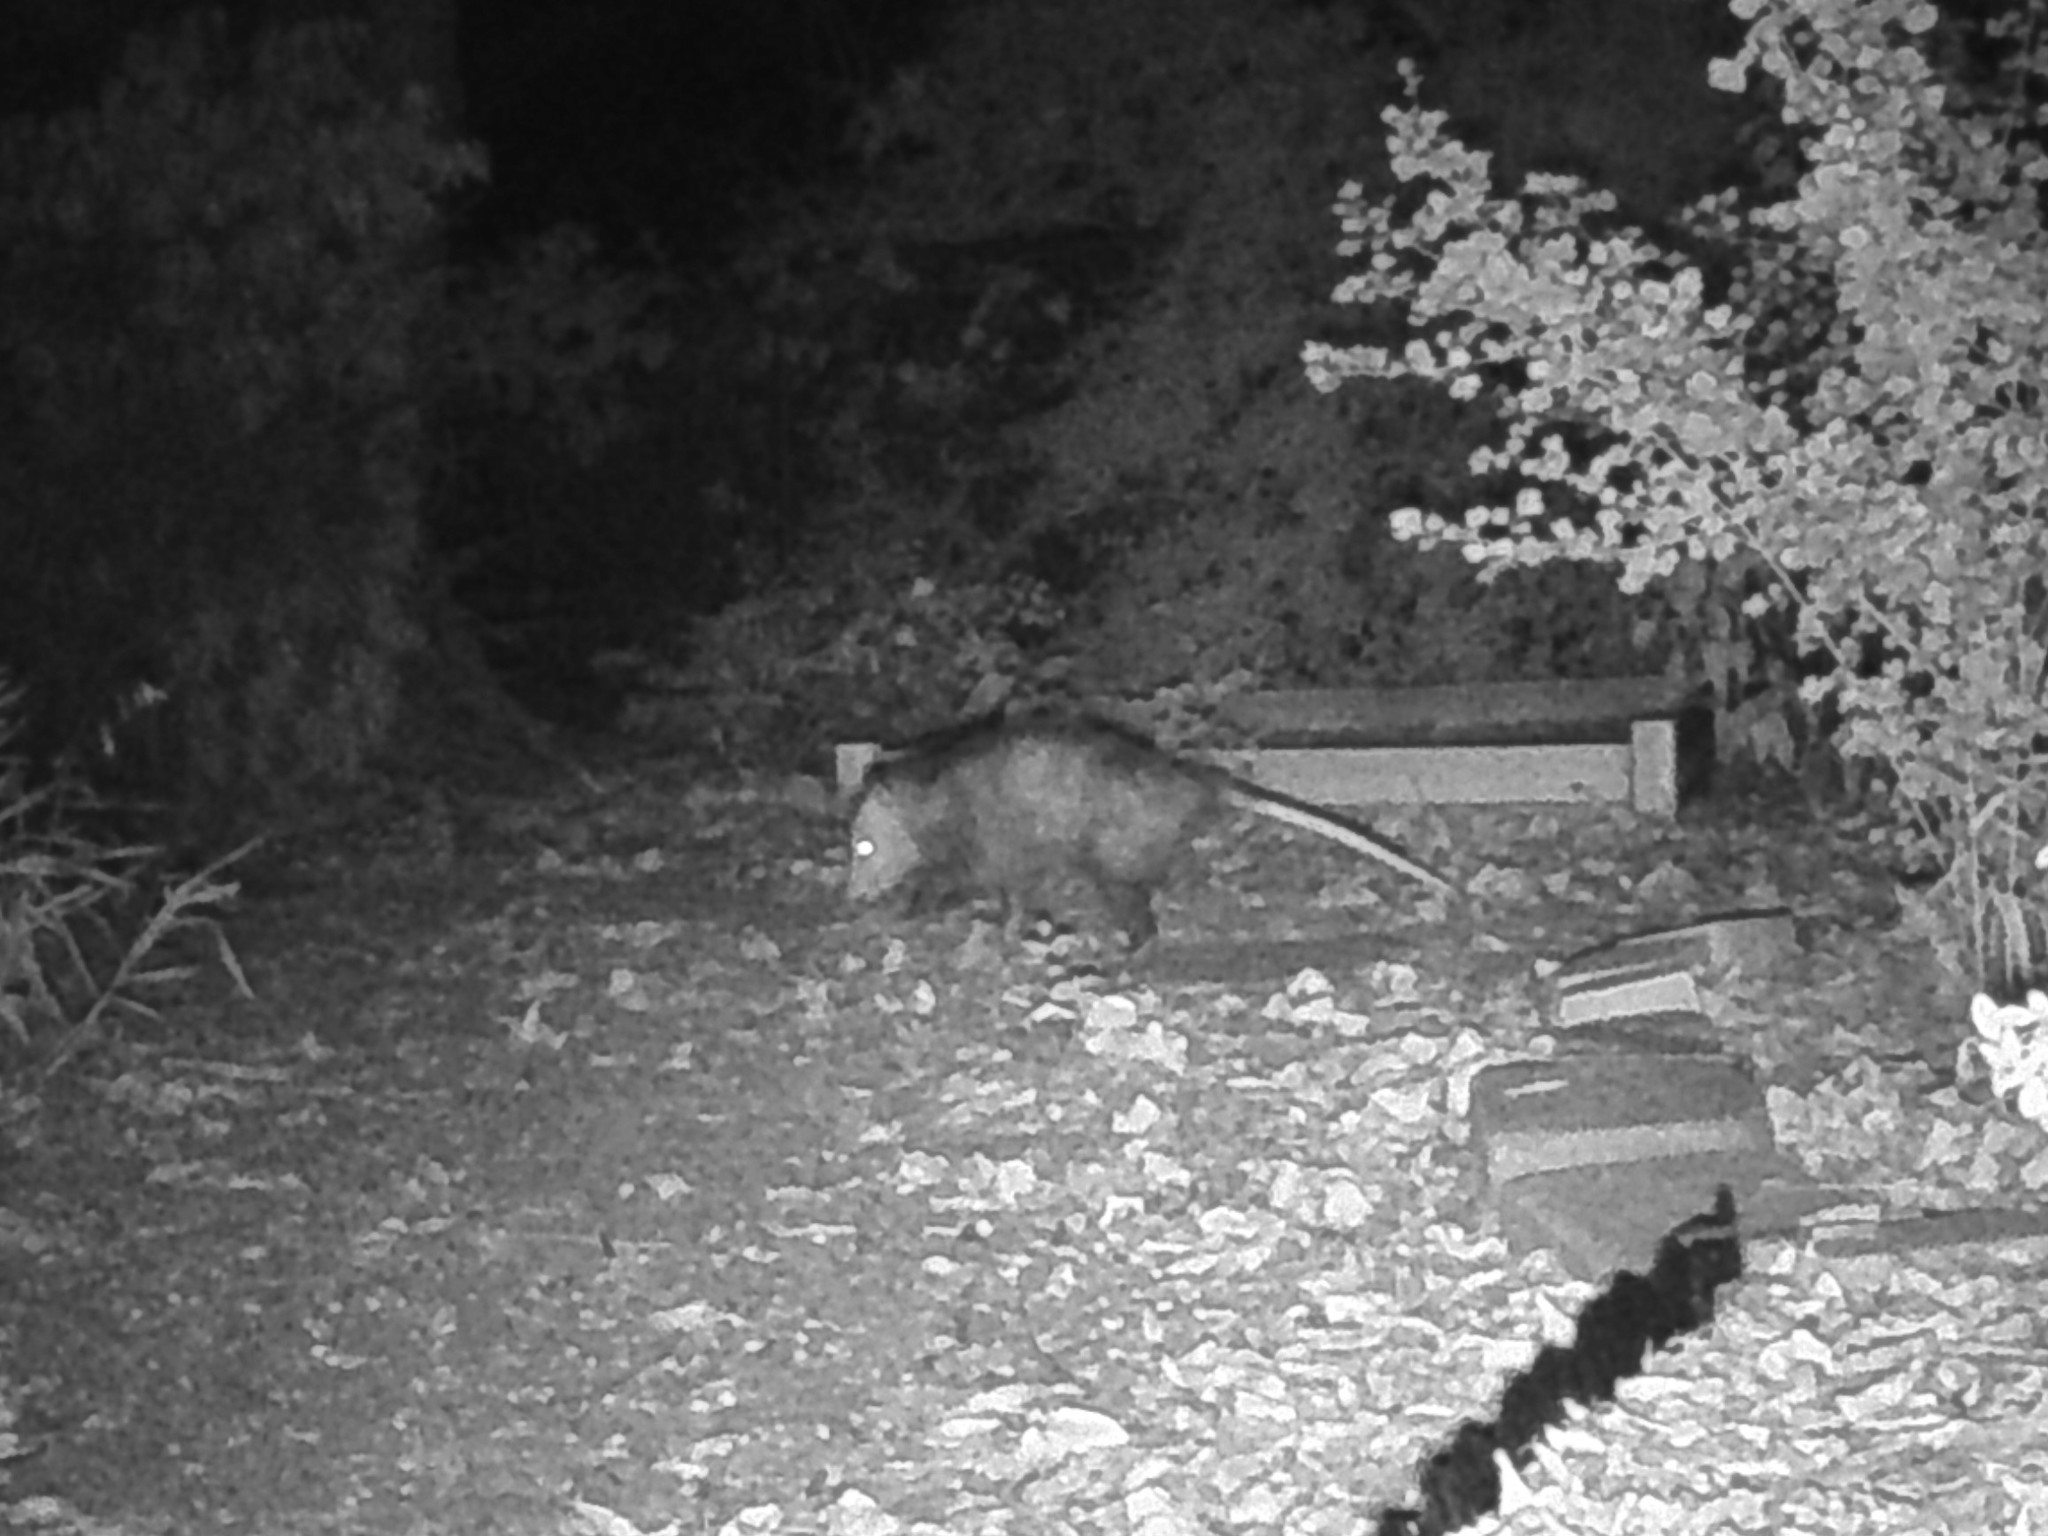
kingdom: Animalia
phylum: Chordata
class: Mammalia
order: Didelphimorphia
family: Didelphidae
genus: Didelphis
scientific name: Didelphis virginiana
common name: Virginia opossum
